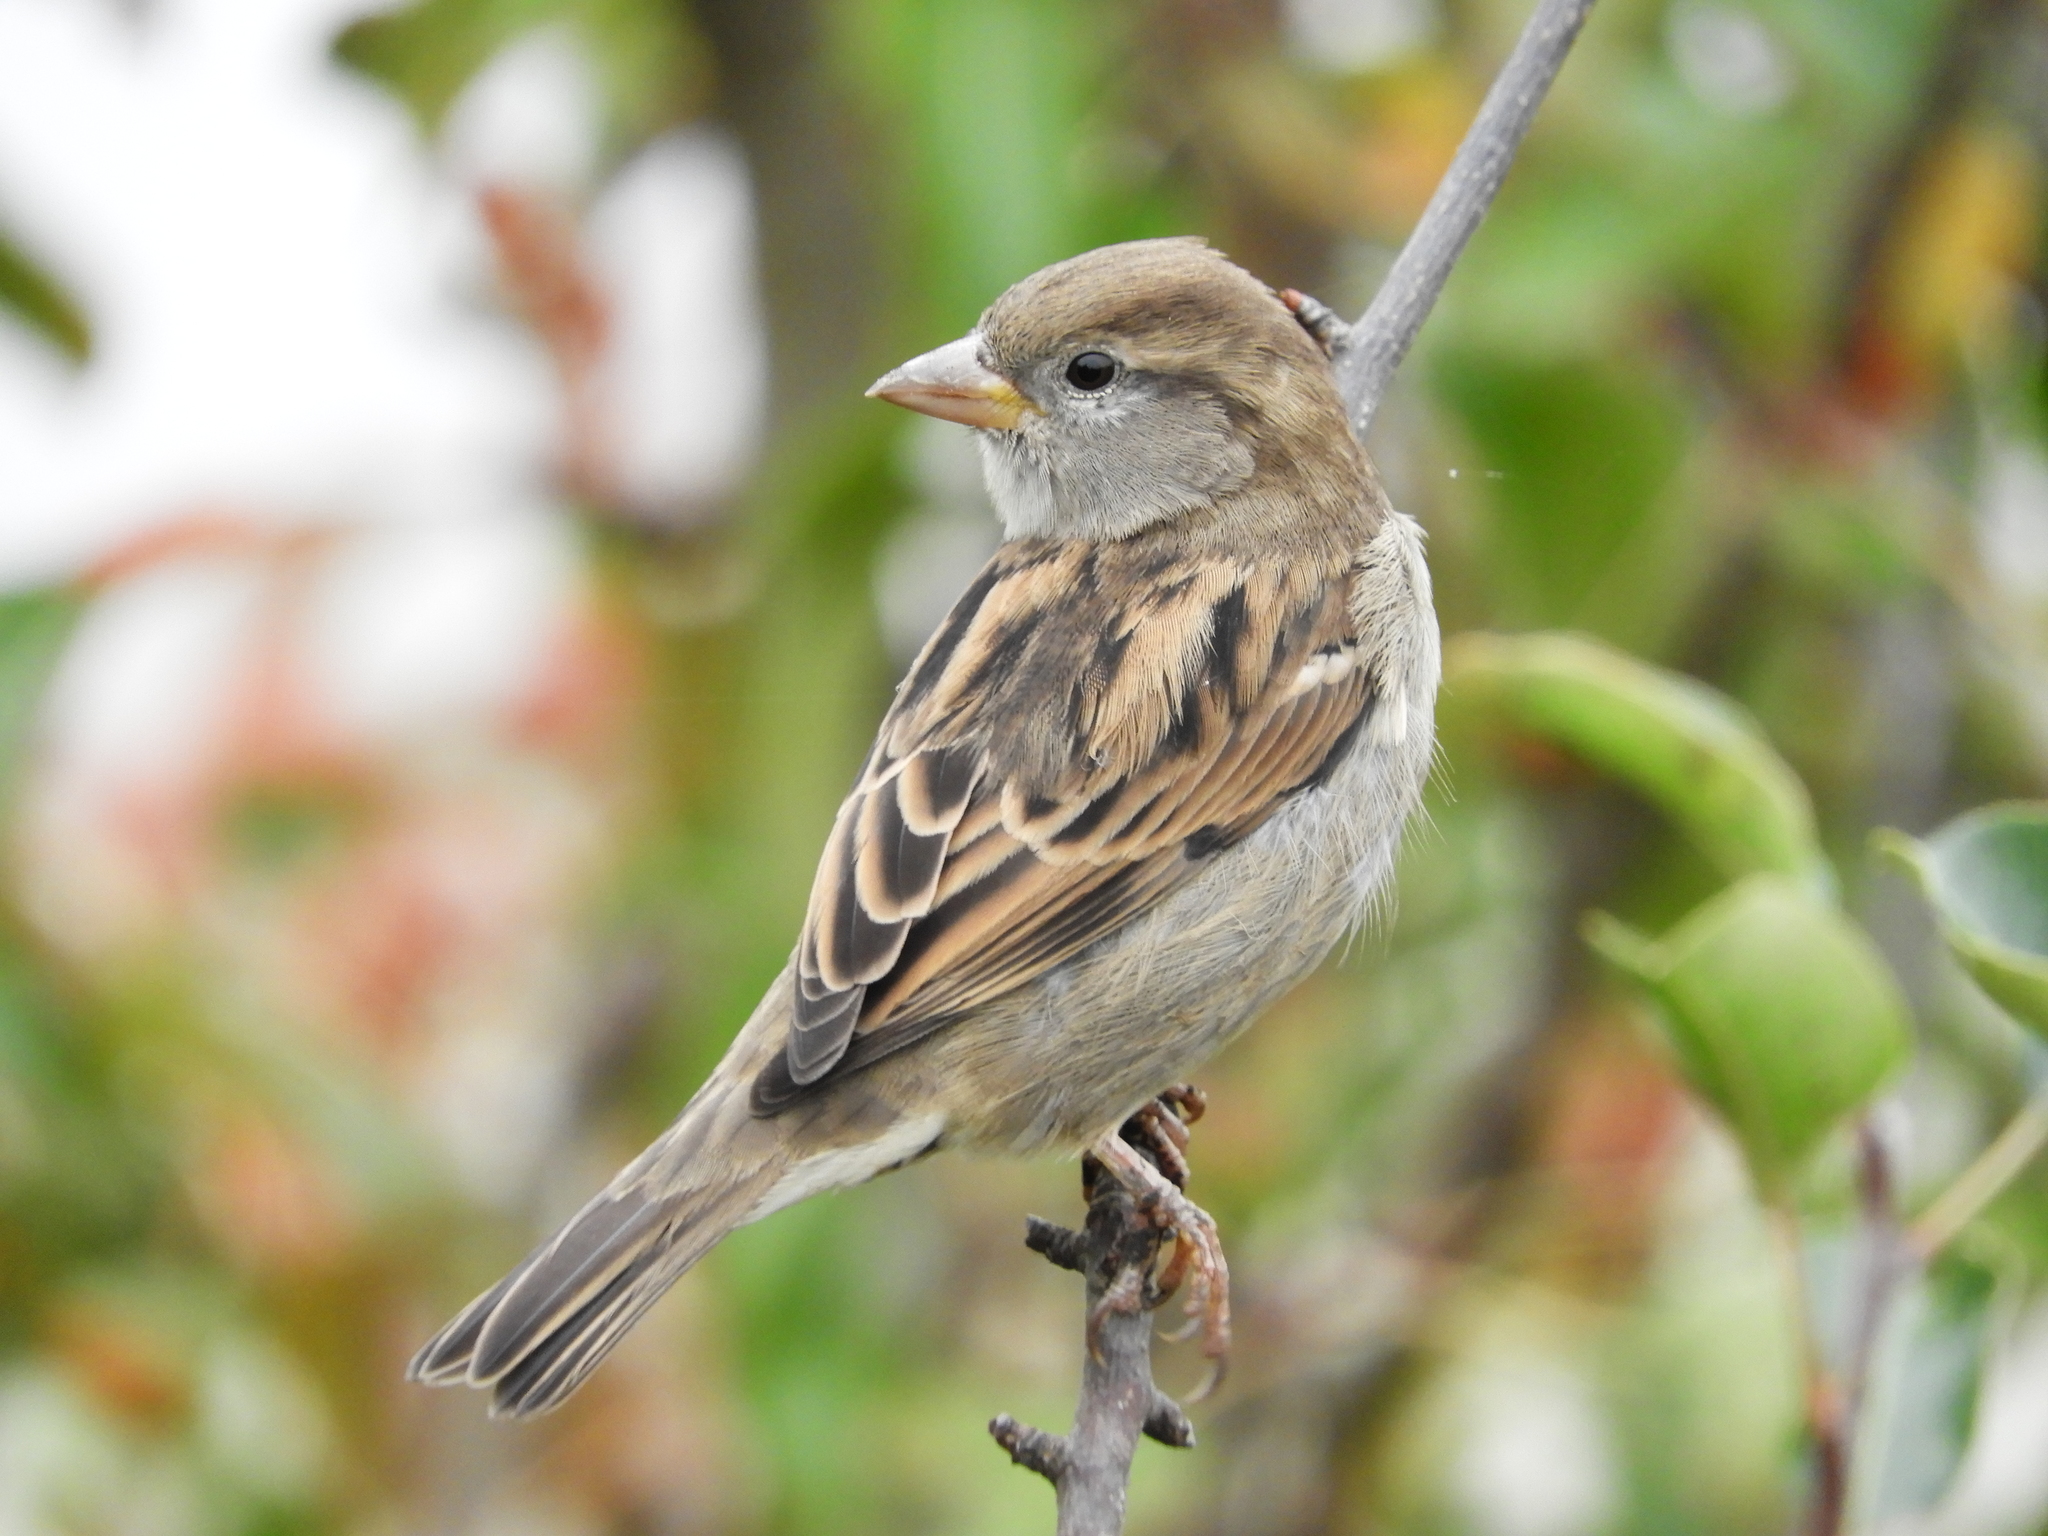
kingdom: Animalia
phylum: Chordata
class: Aves
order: Passeriformes
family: Passeridae
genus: Passer
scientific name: Passer domesticus
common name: House sparrow
